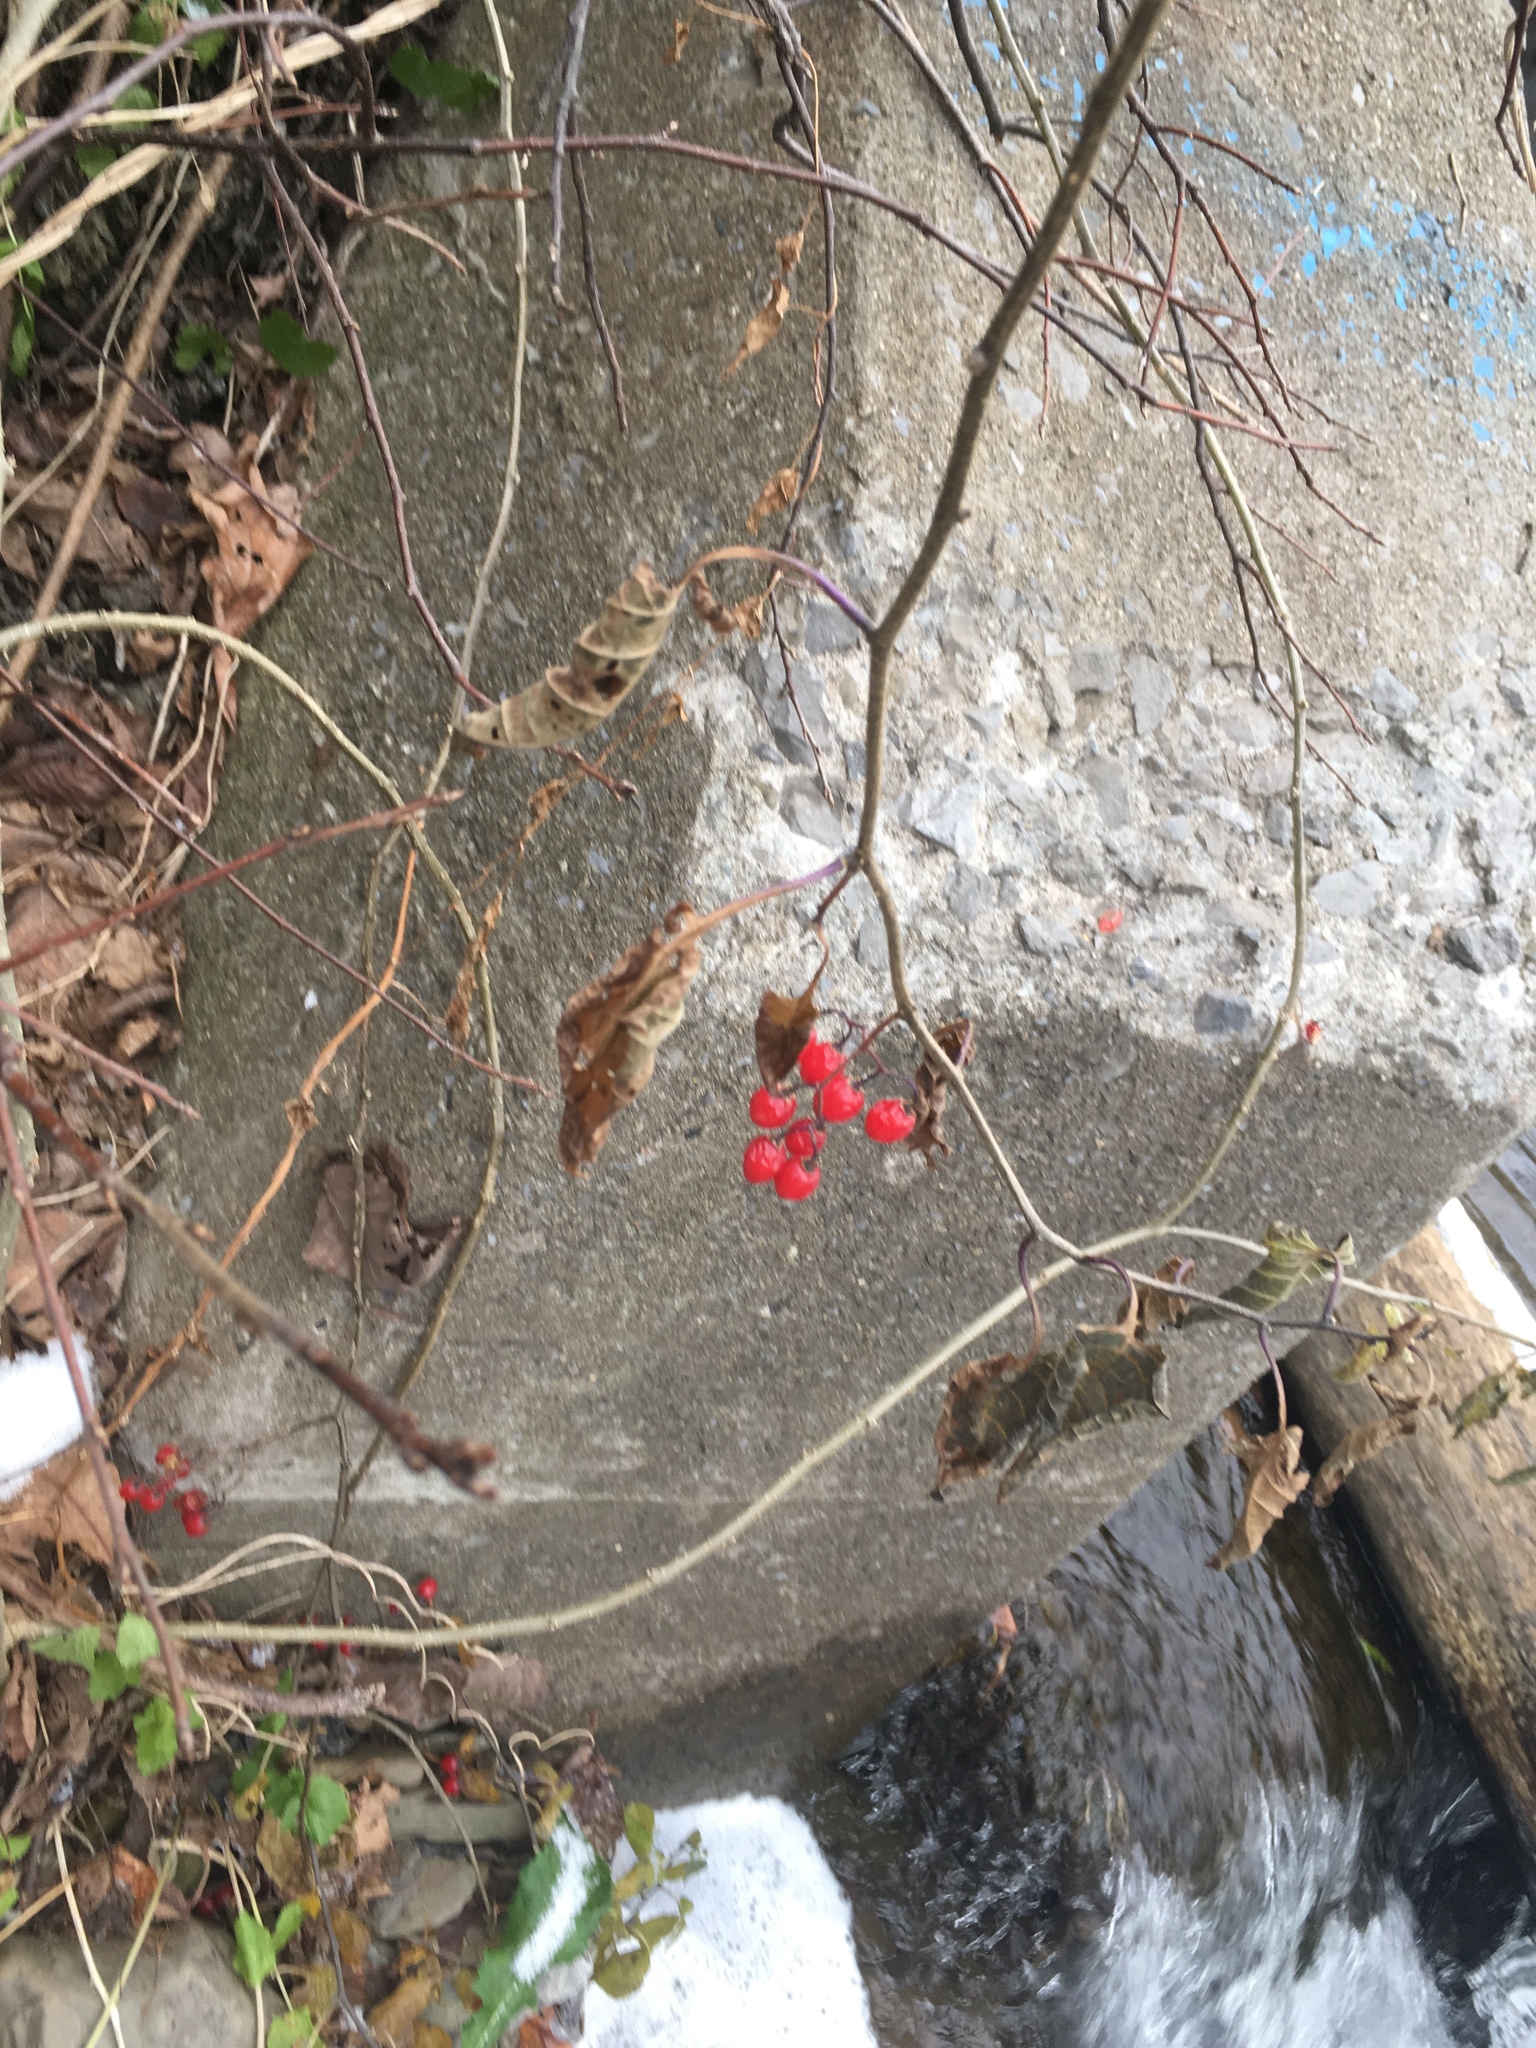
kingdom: Plantae
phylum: Tracheophyta
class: Magnoliopsida
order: Solanales
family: Solanaceae
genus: Solanum
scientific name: Solanum dulcamara
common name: Climbing nightshade
